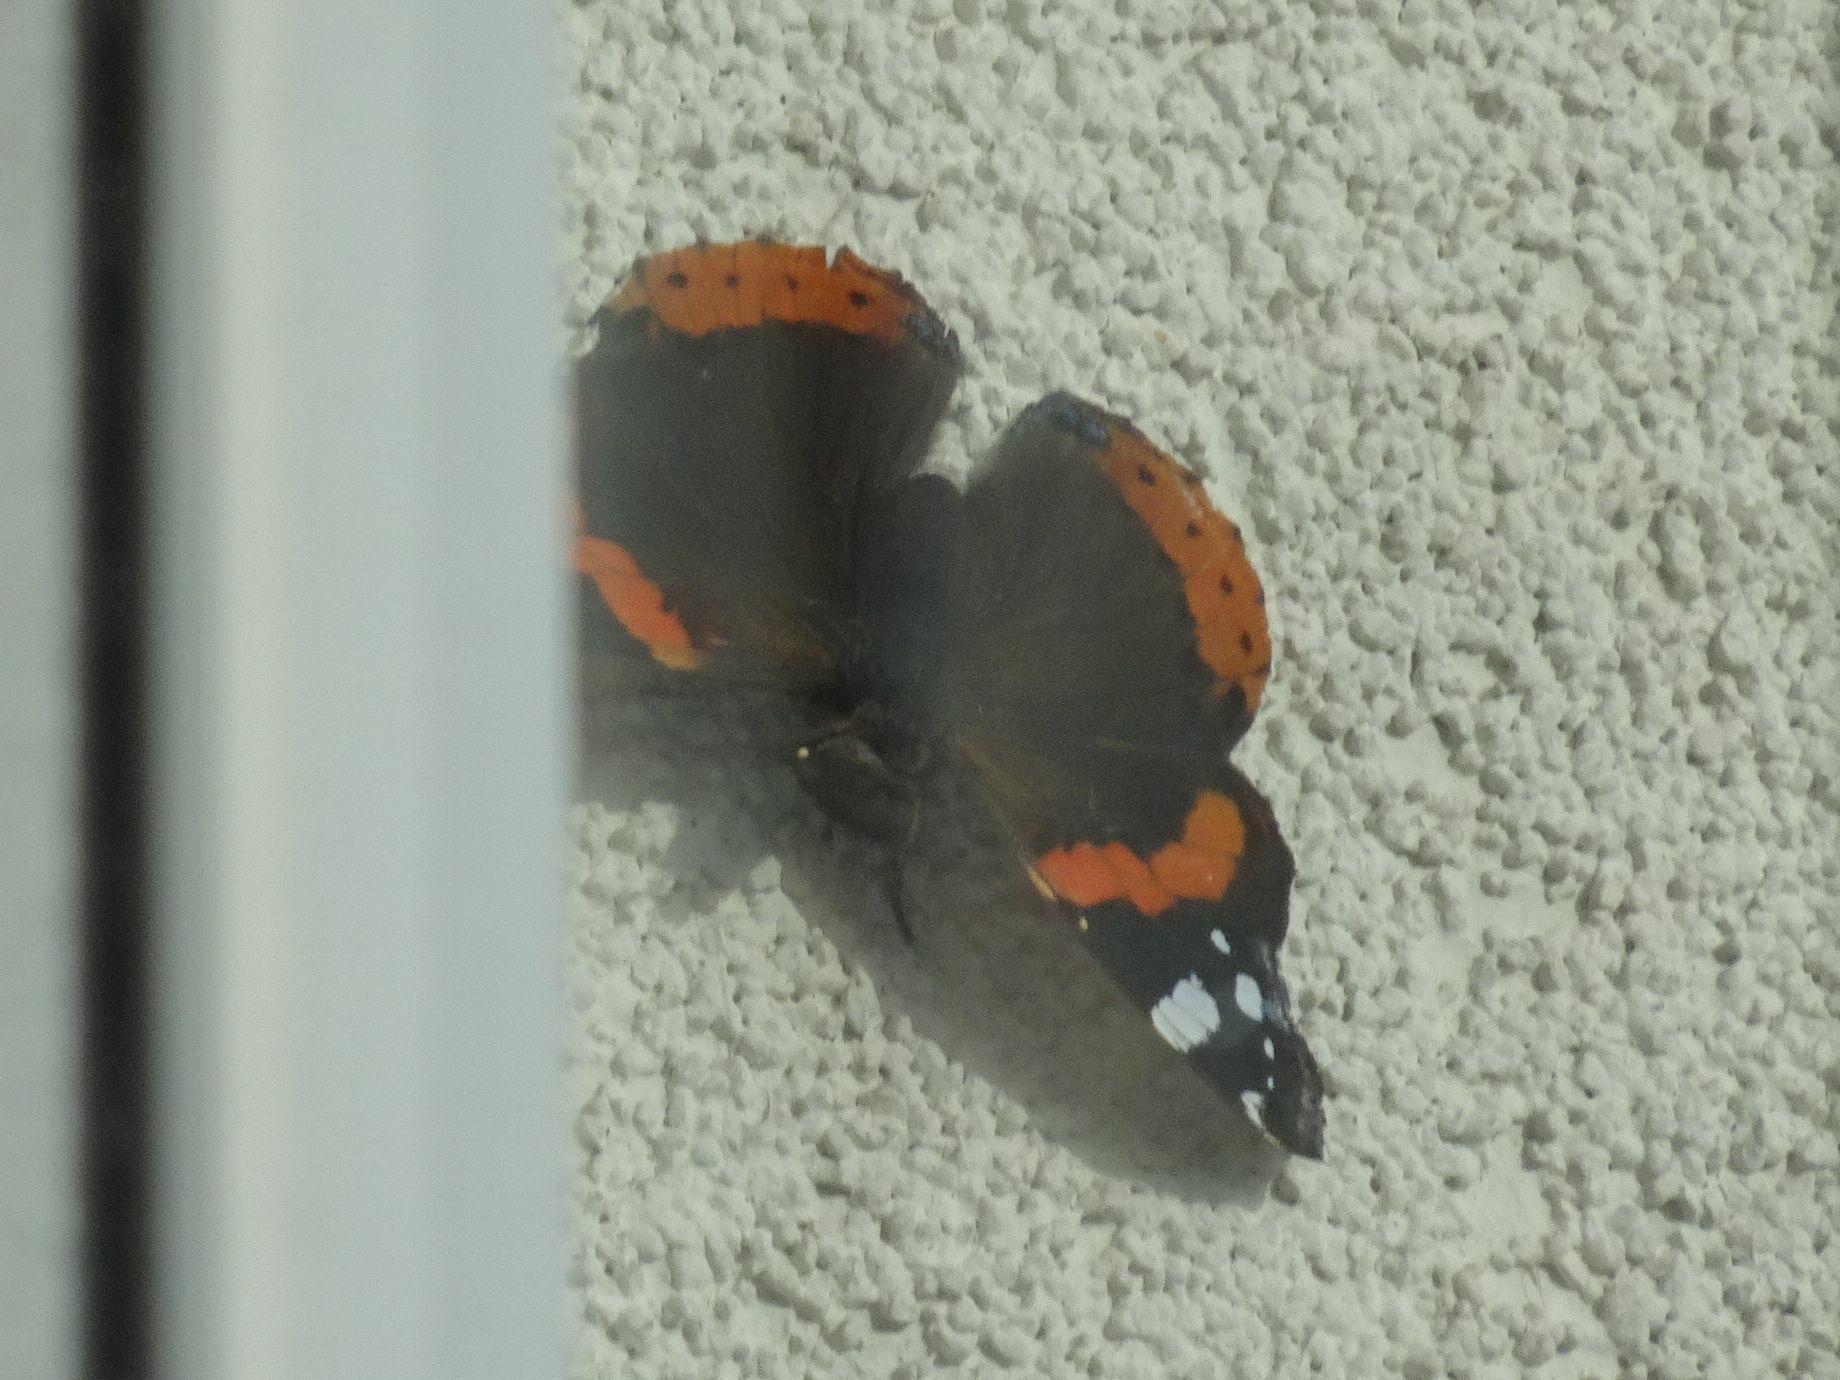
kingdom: Animalia
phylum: Arthropoda
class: Insecta
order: Lepidoptera
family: Nymphalidae
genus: Vanessa
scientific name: Vanessa atalanta
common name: Red admiral
